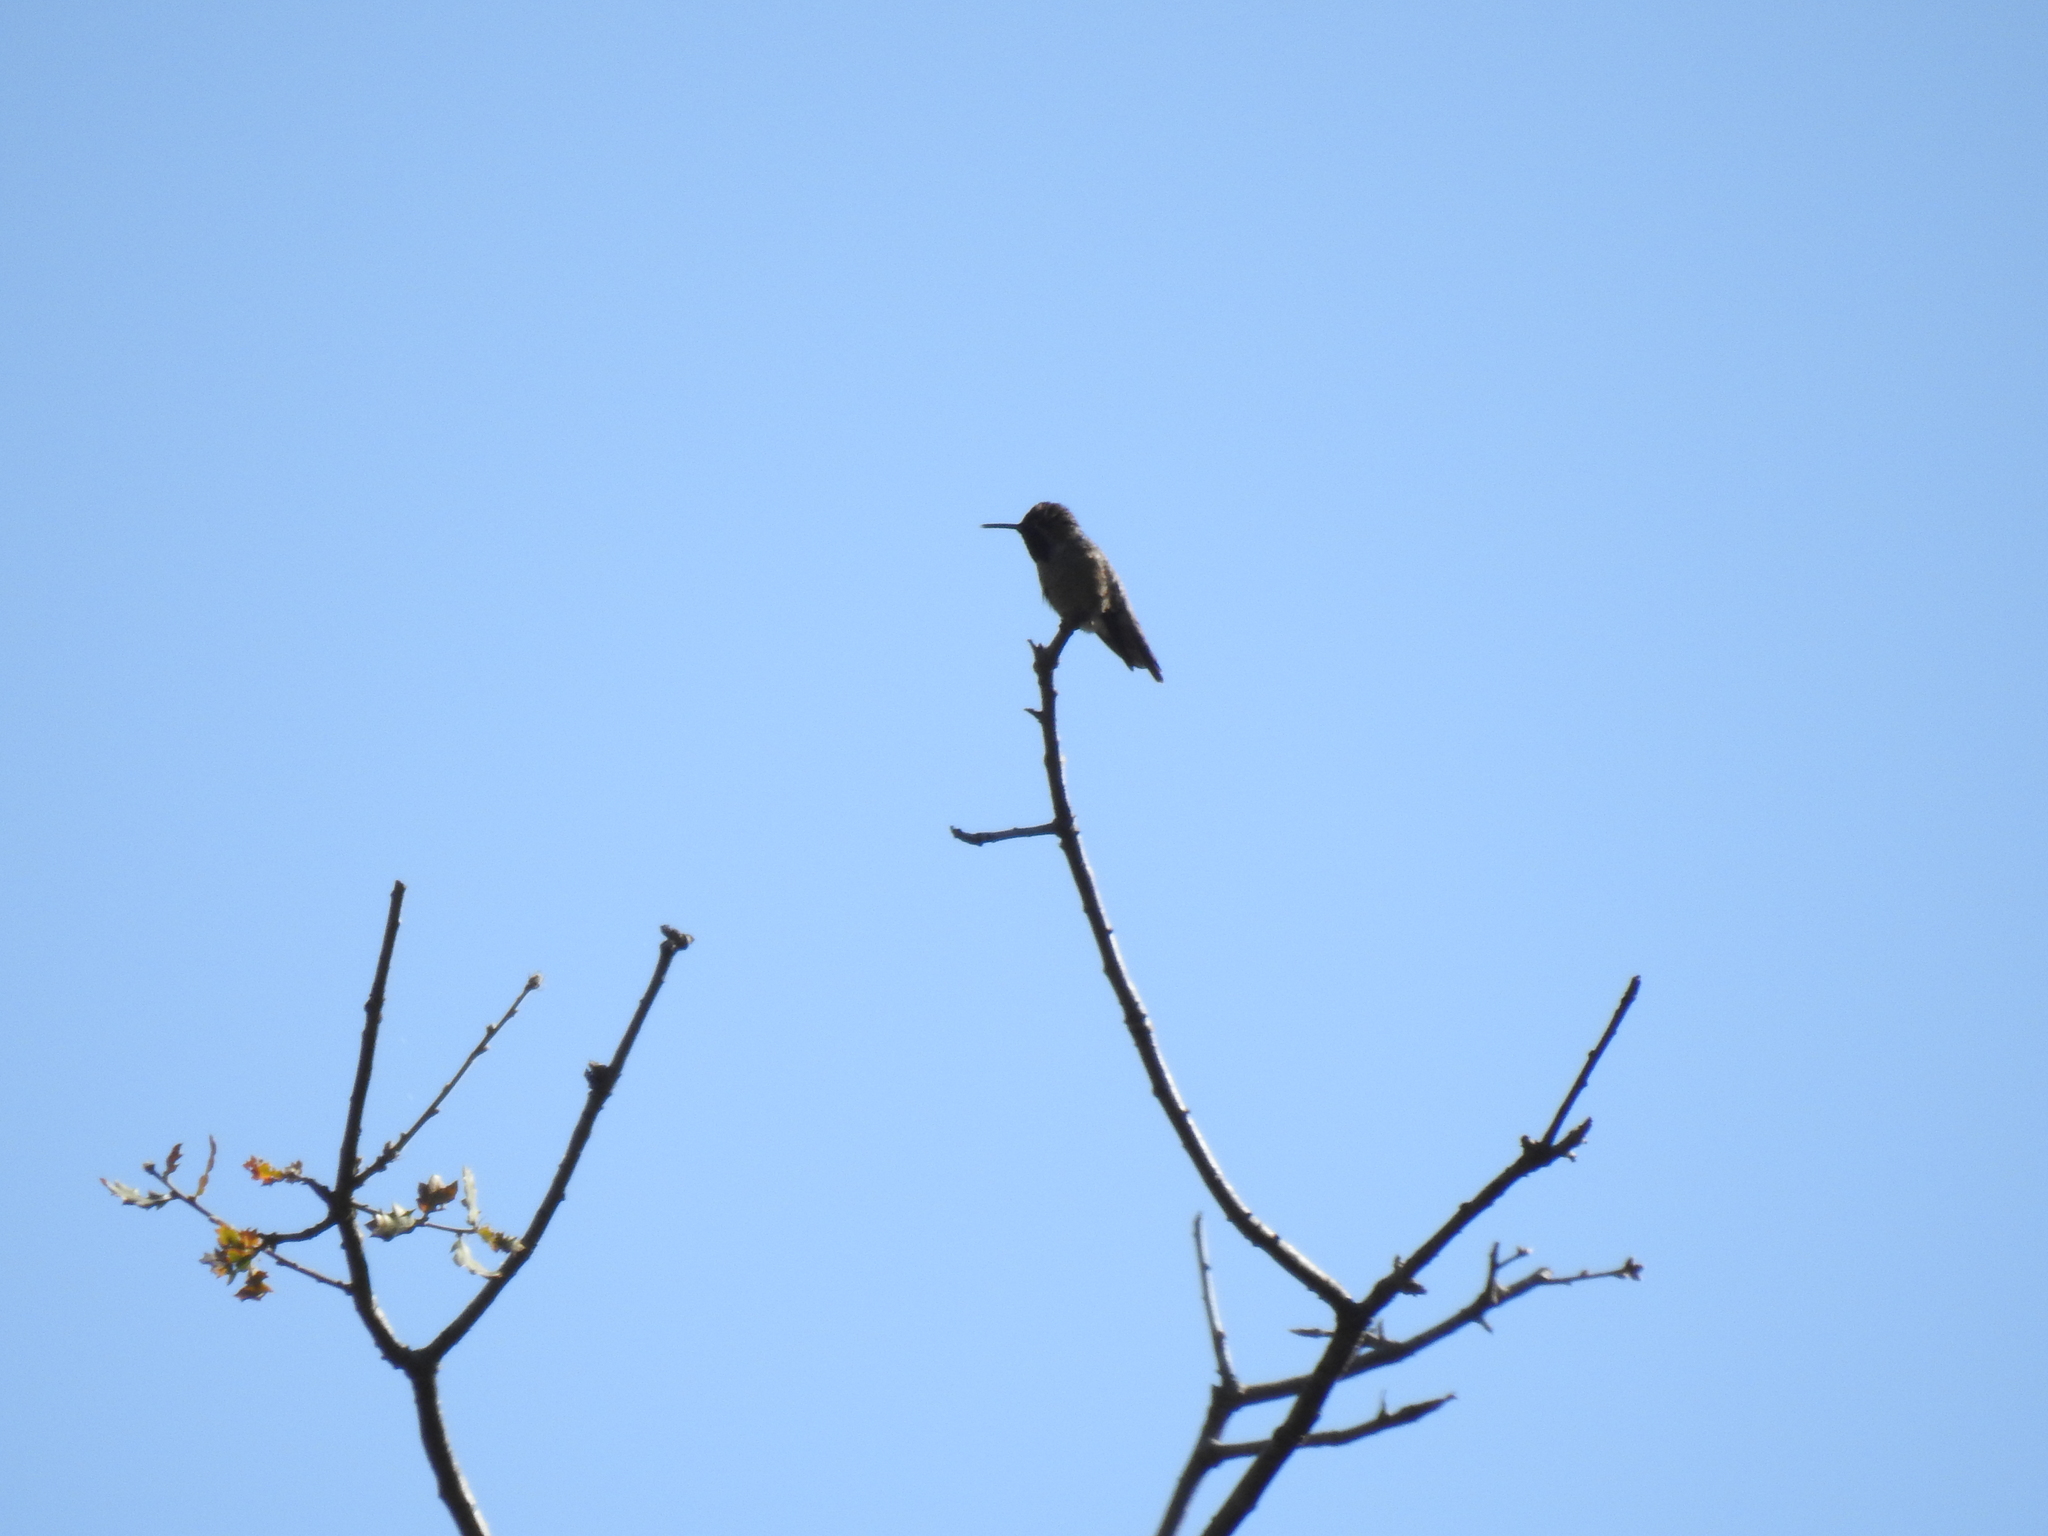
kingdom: Animalia
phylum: Chordata
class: Aves
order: Apodiformes
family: Trochilidae
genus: Calypte
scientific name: Calypte anna
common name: Anna's hummingbird
